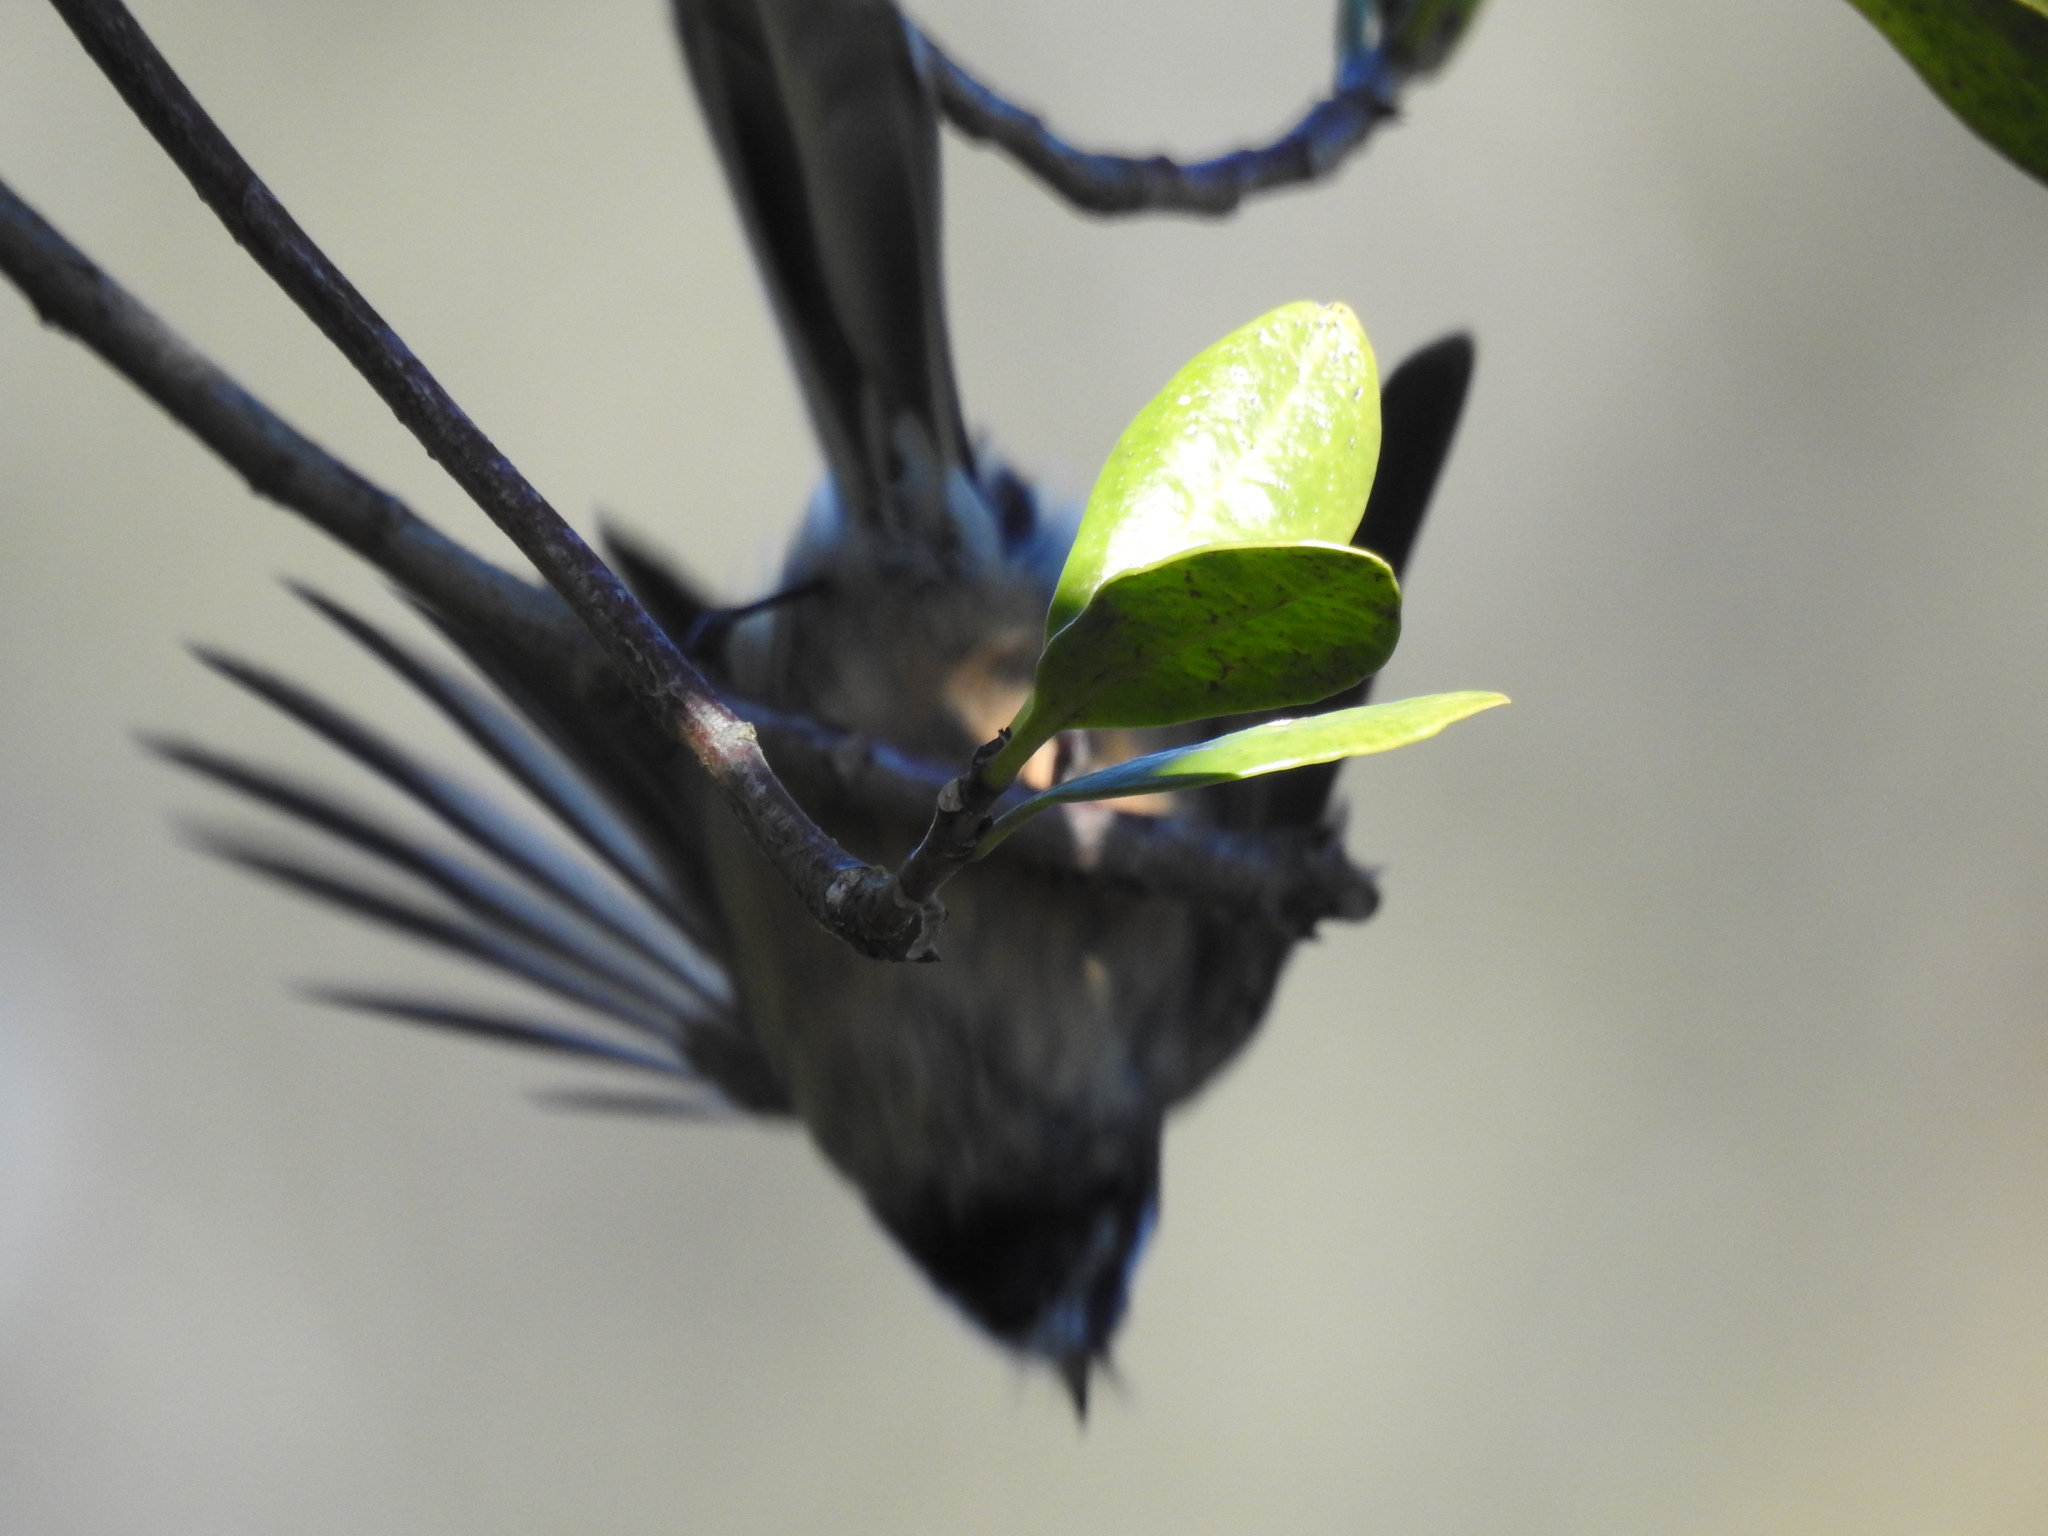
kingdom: Animalia
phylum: Chordata
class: Aves
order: Passeriformes
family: Rhipiduridae
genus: Rhipidura
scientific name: Rhipidura fuliginosa
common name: New zealand fantail
